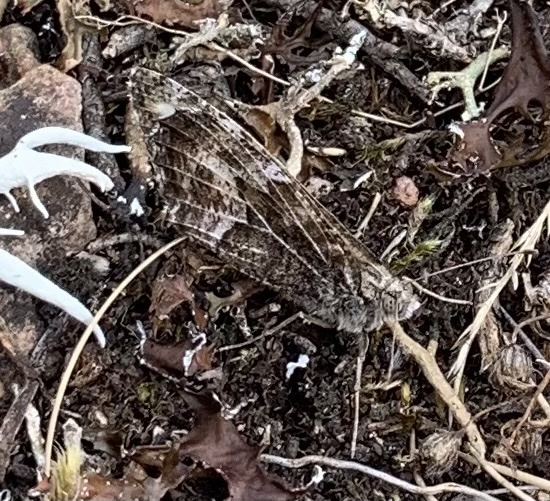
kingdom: Animalia
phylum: Arthropoda
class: Insecta
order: Lepidoptera
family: Nymphalidae
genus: Hipparchia
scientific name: Hipparchia semele
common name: Grayling
